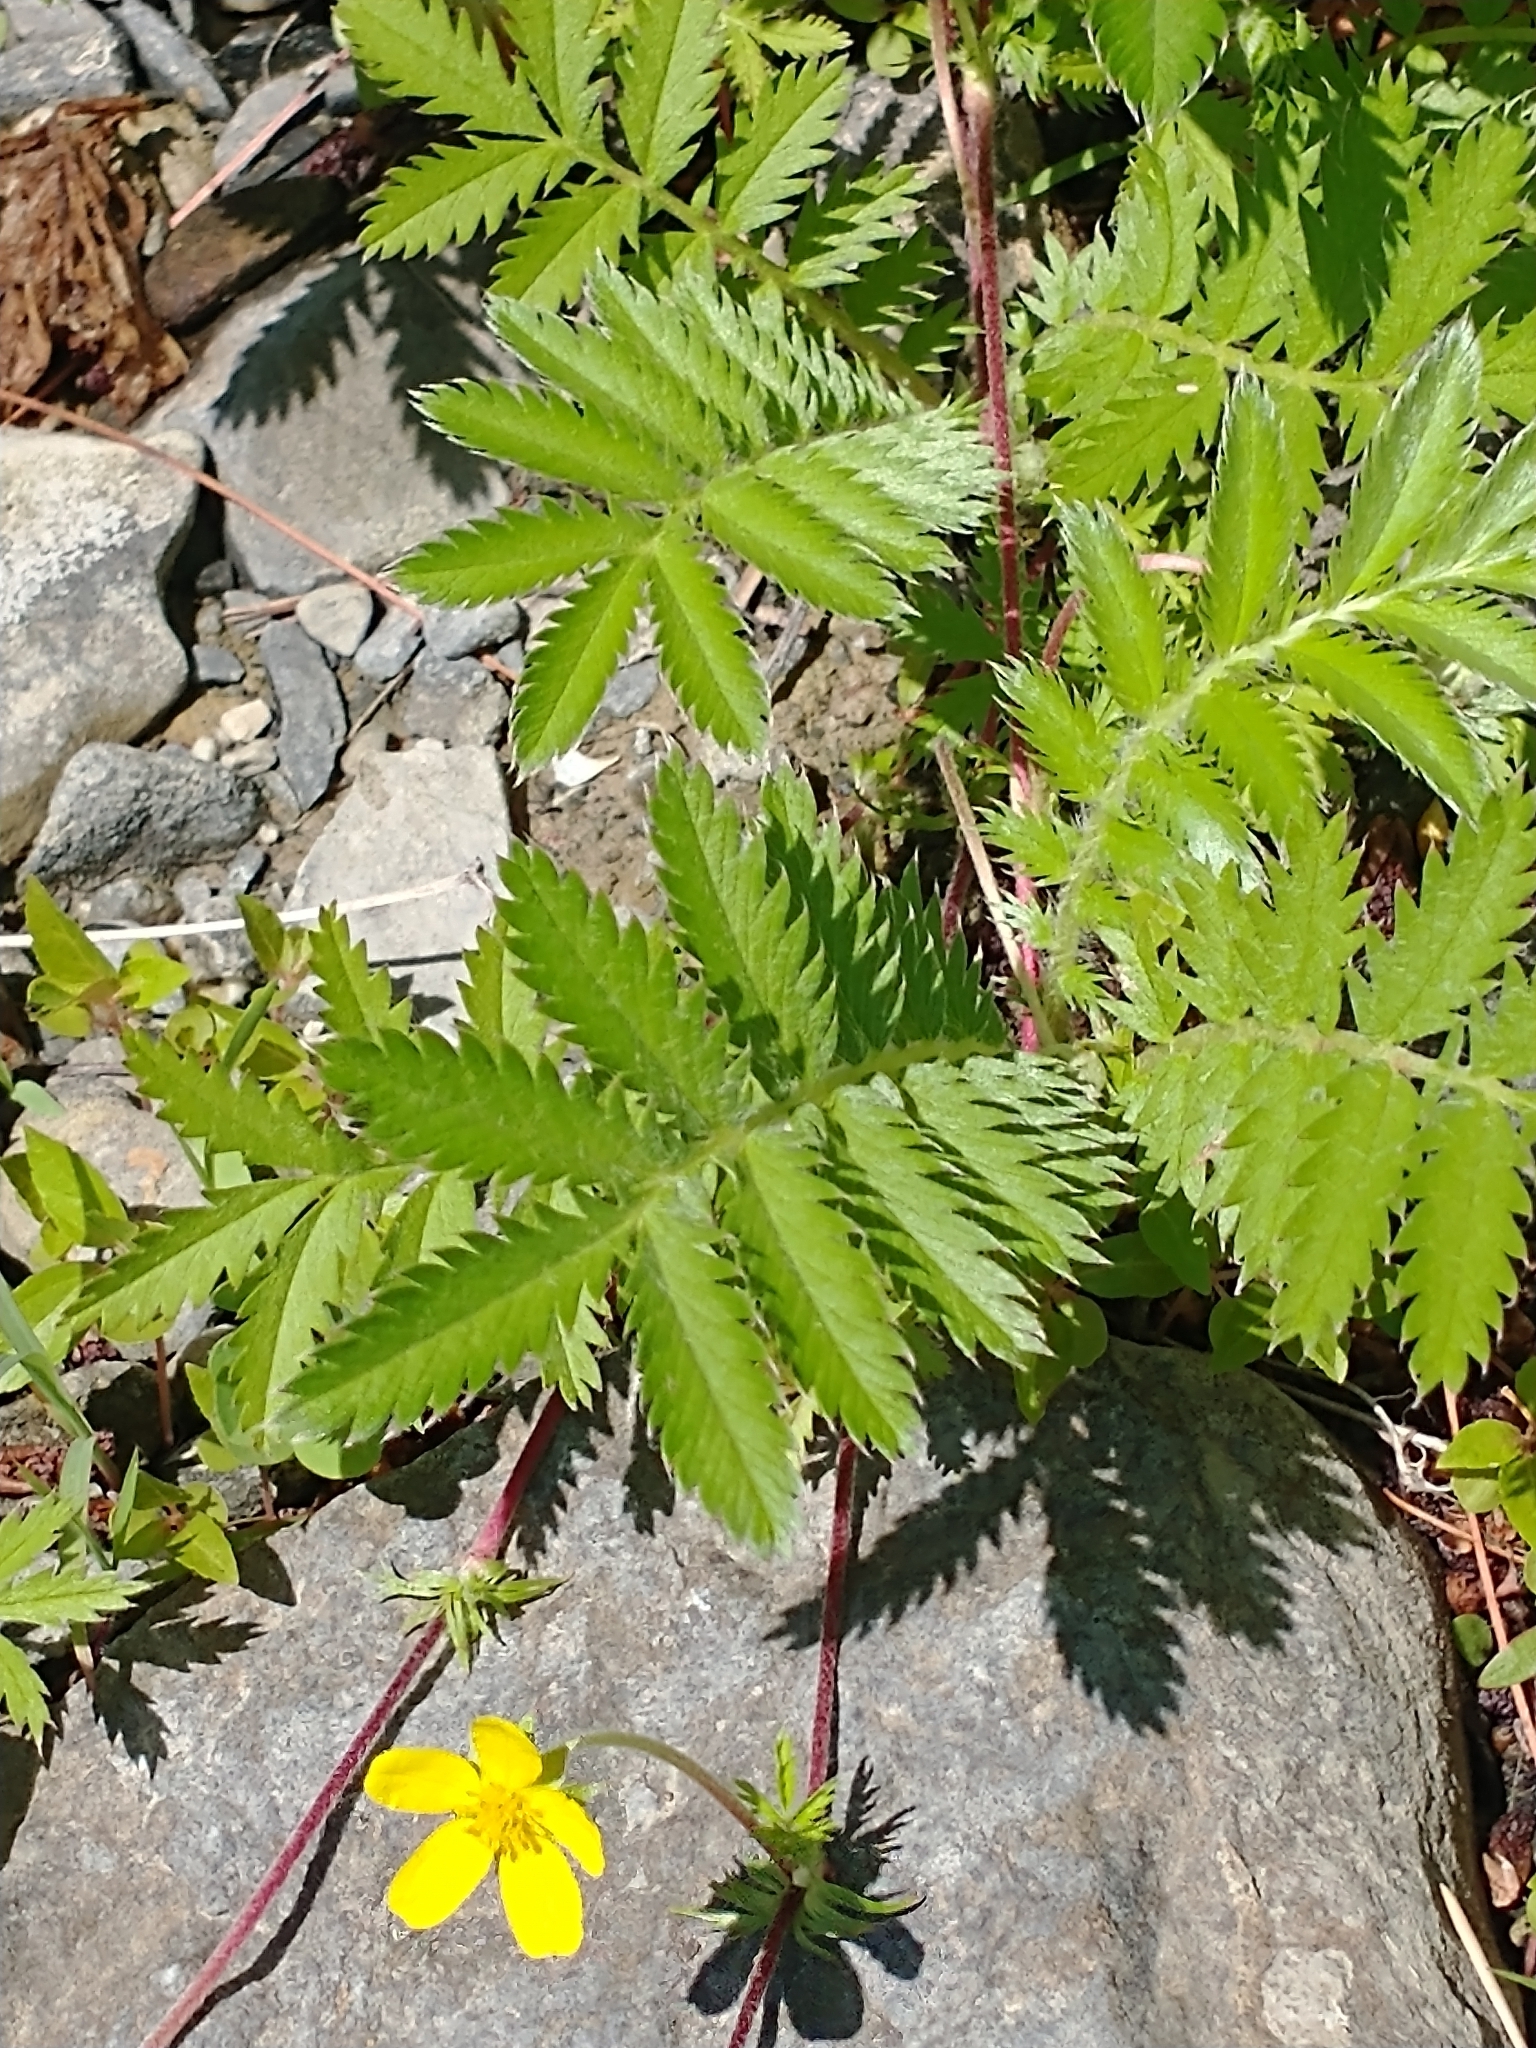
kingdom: Plantae
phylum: Tracheophyta
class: Magnoliopsida
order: Rosales
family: Rosaceae
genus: Argentina
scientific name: Argentina anserina
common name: Common silverweed
